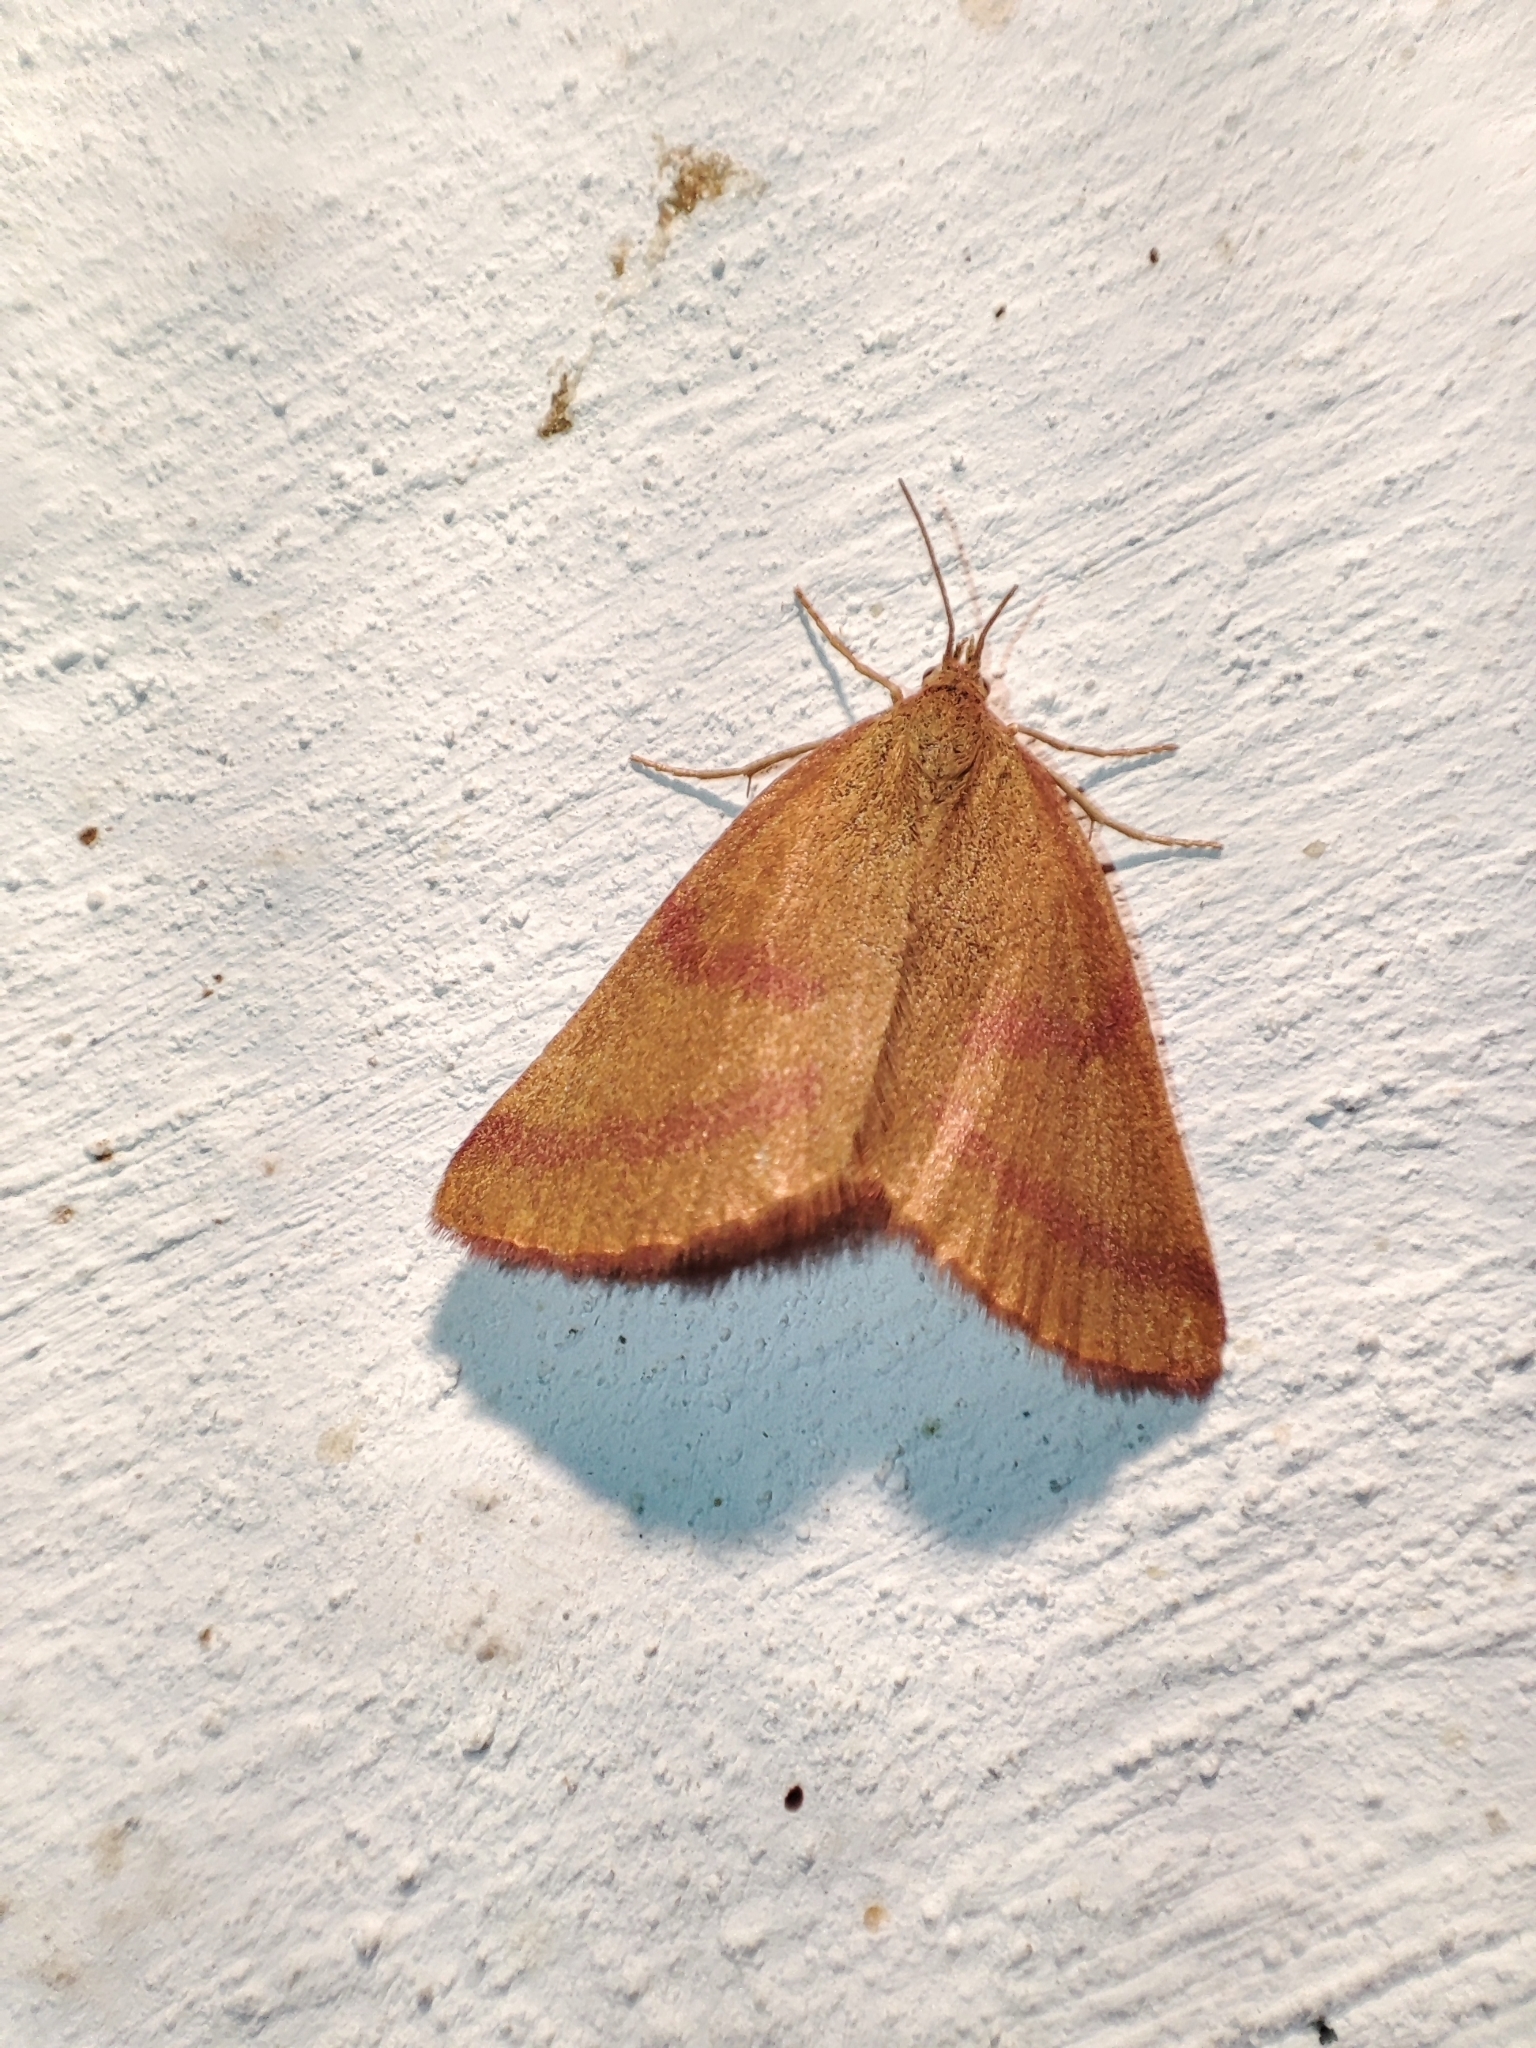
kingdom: Animalia
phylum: Arthropoda
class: Insecta
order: Lepidoptera
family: Geometridae
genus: Lythria
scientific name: Lythria purpuraria
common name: Purple-barred yellow
